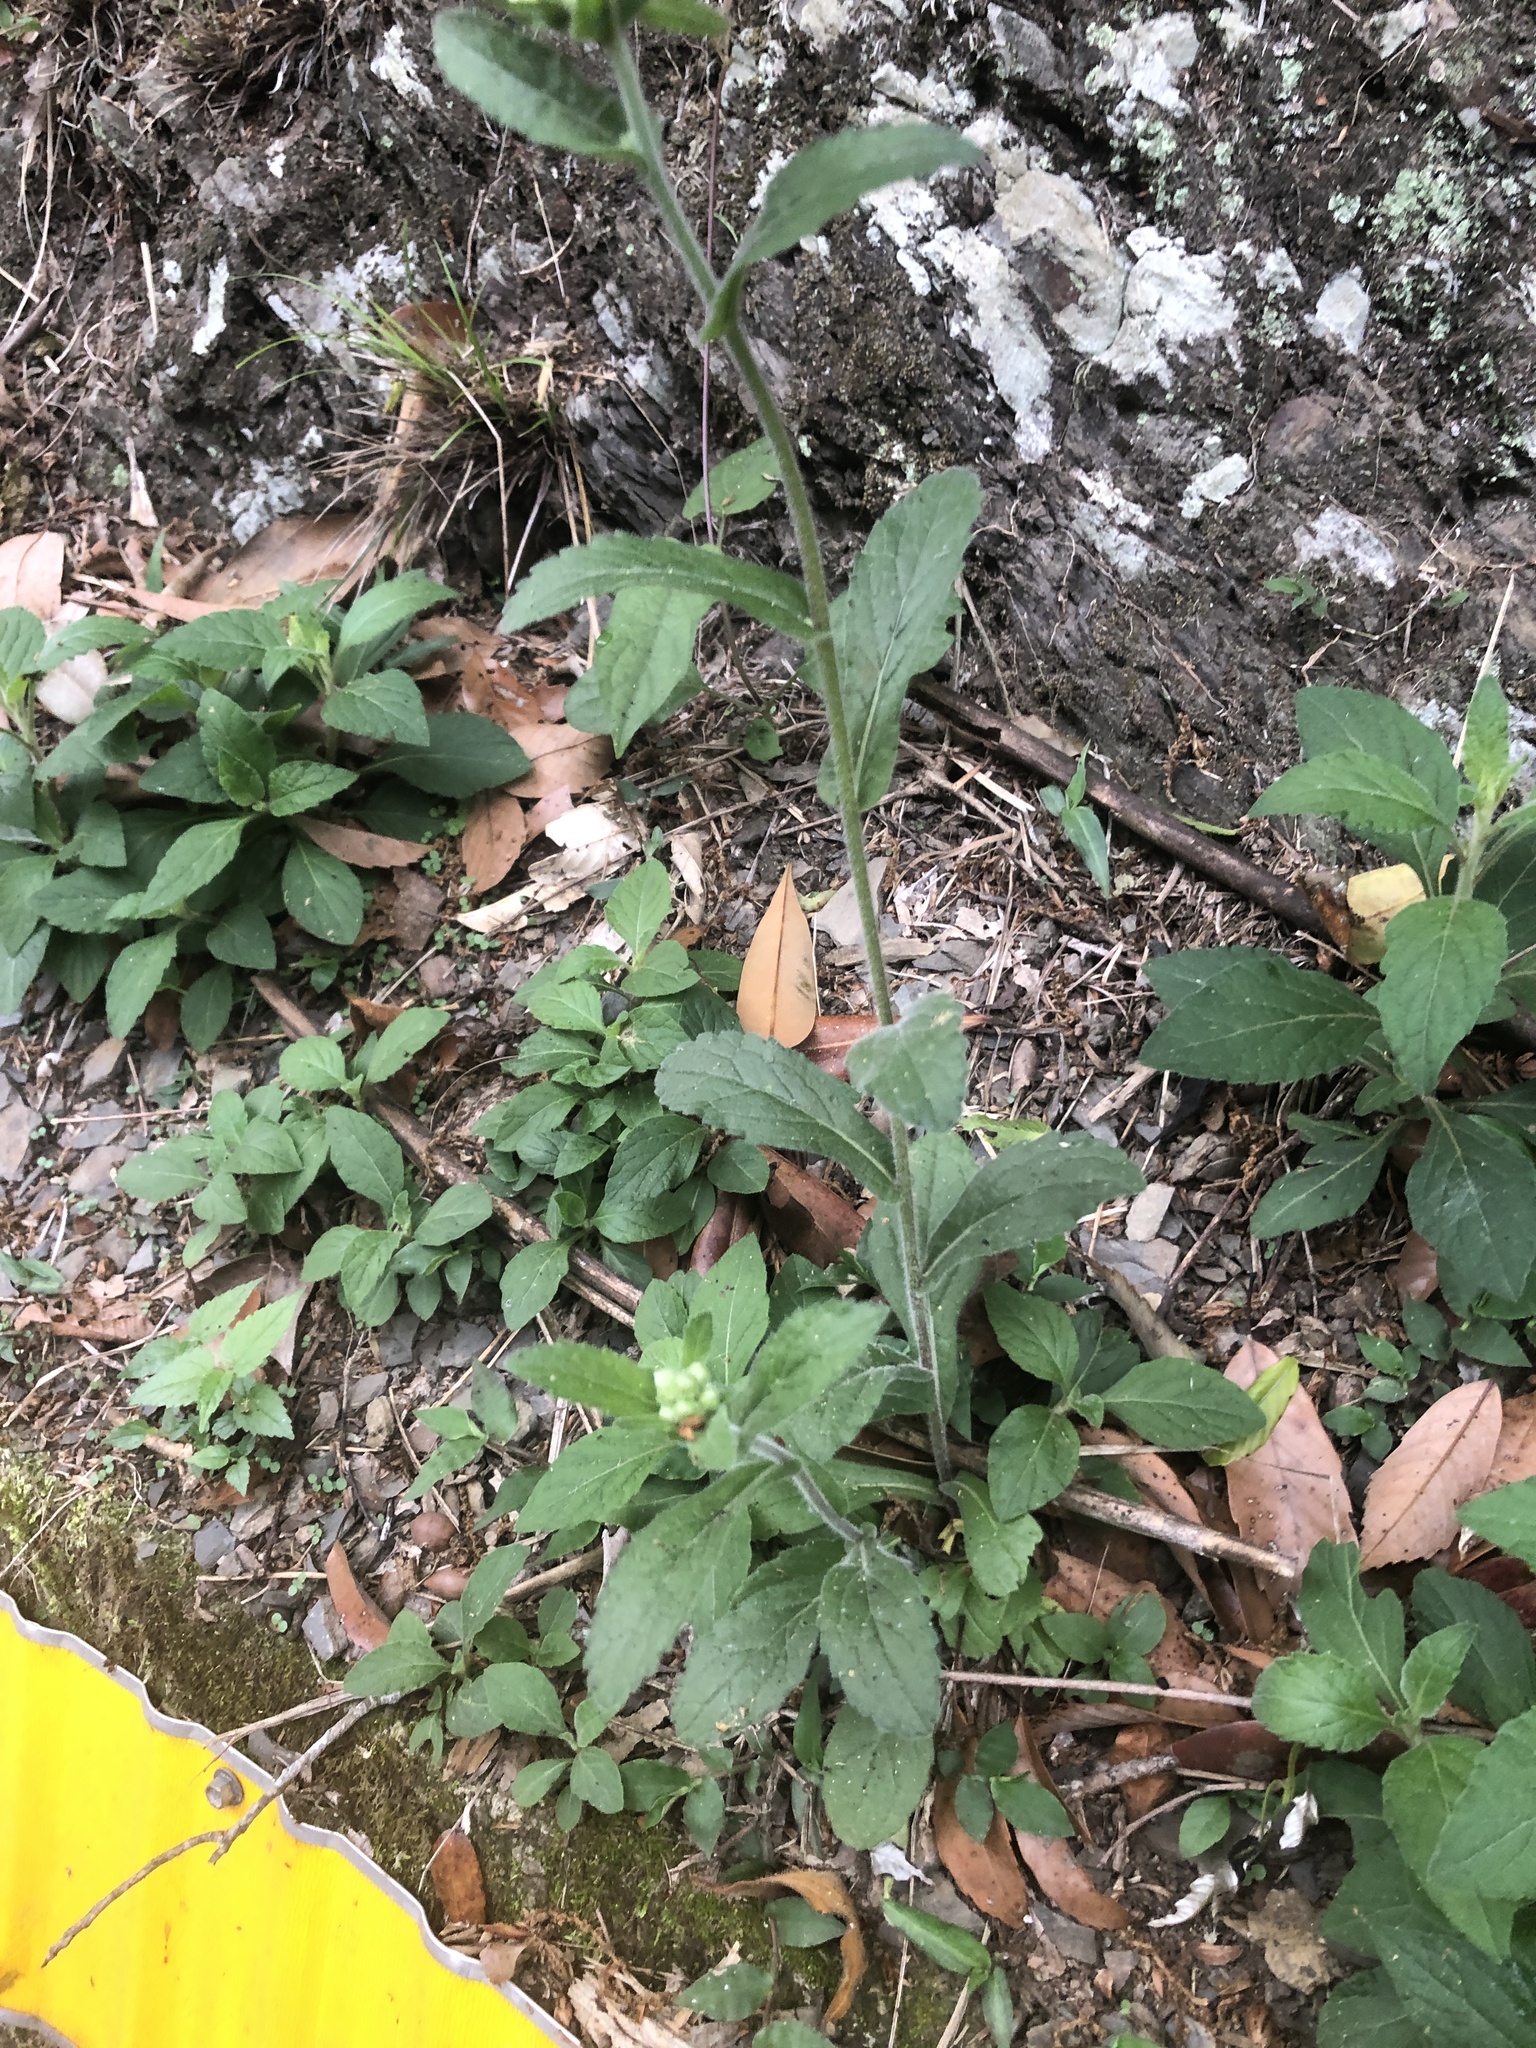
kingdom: Plantae
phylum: Tracheophyta
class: Magnoliopsida
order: Asterales
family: Asteraceae
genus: Eschenbachia
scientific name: Eschenbachia japonica
